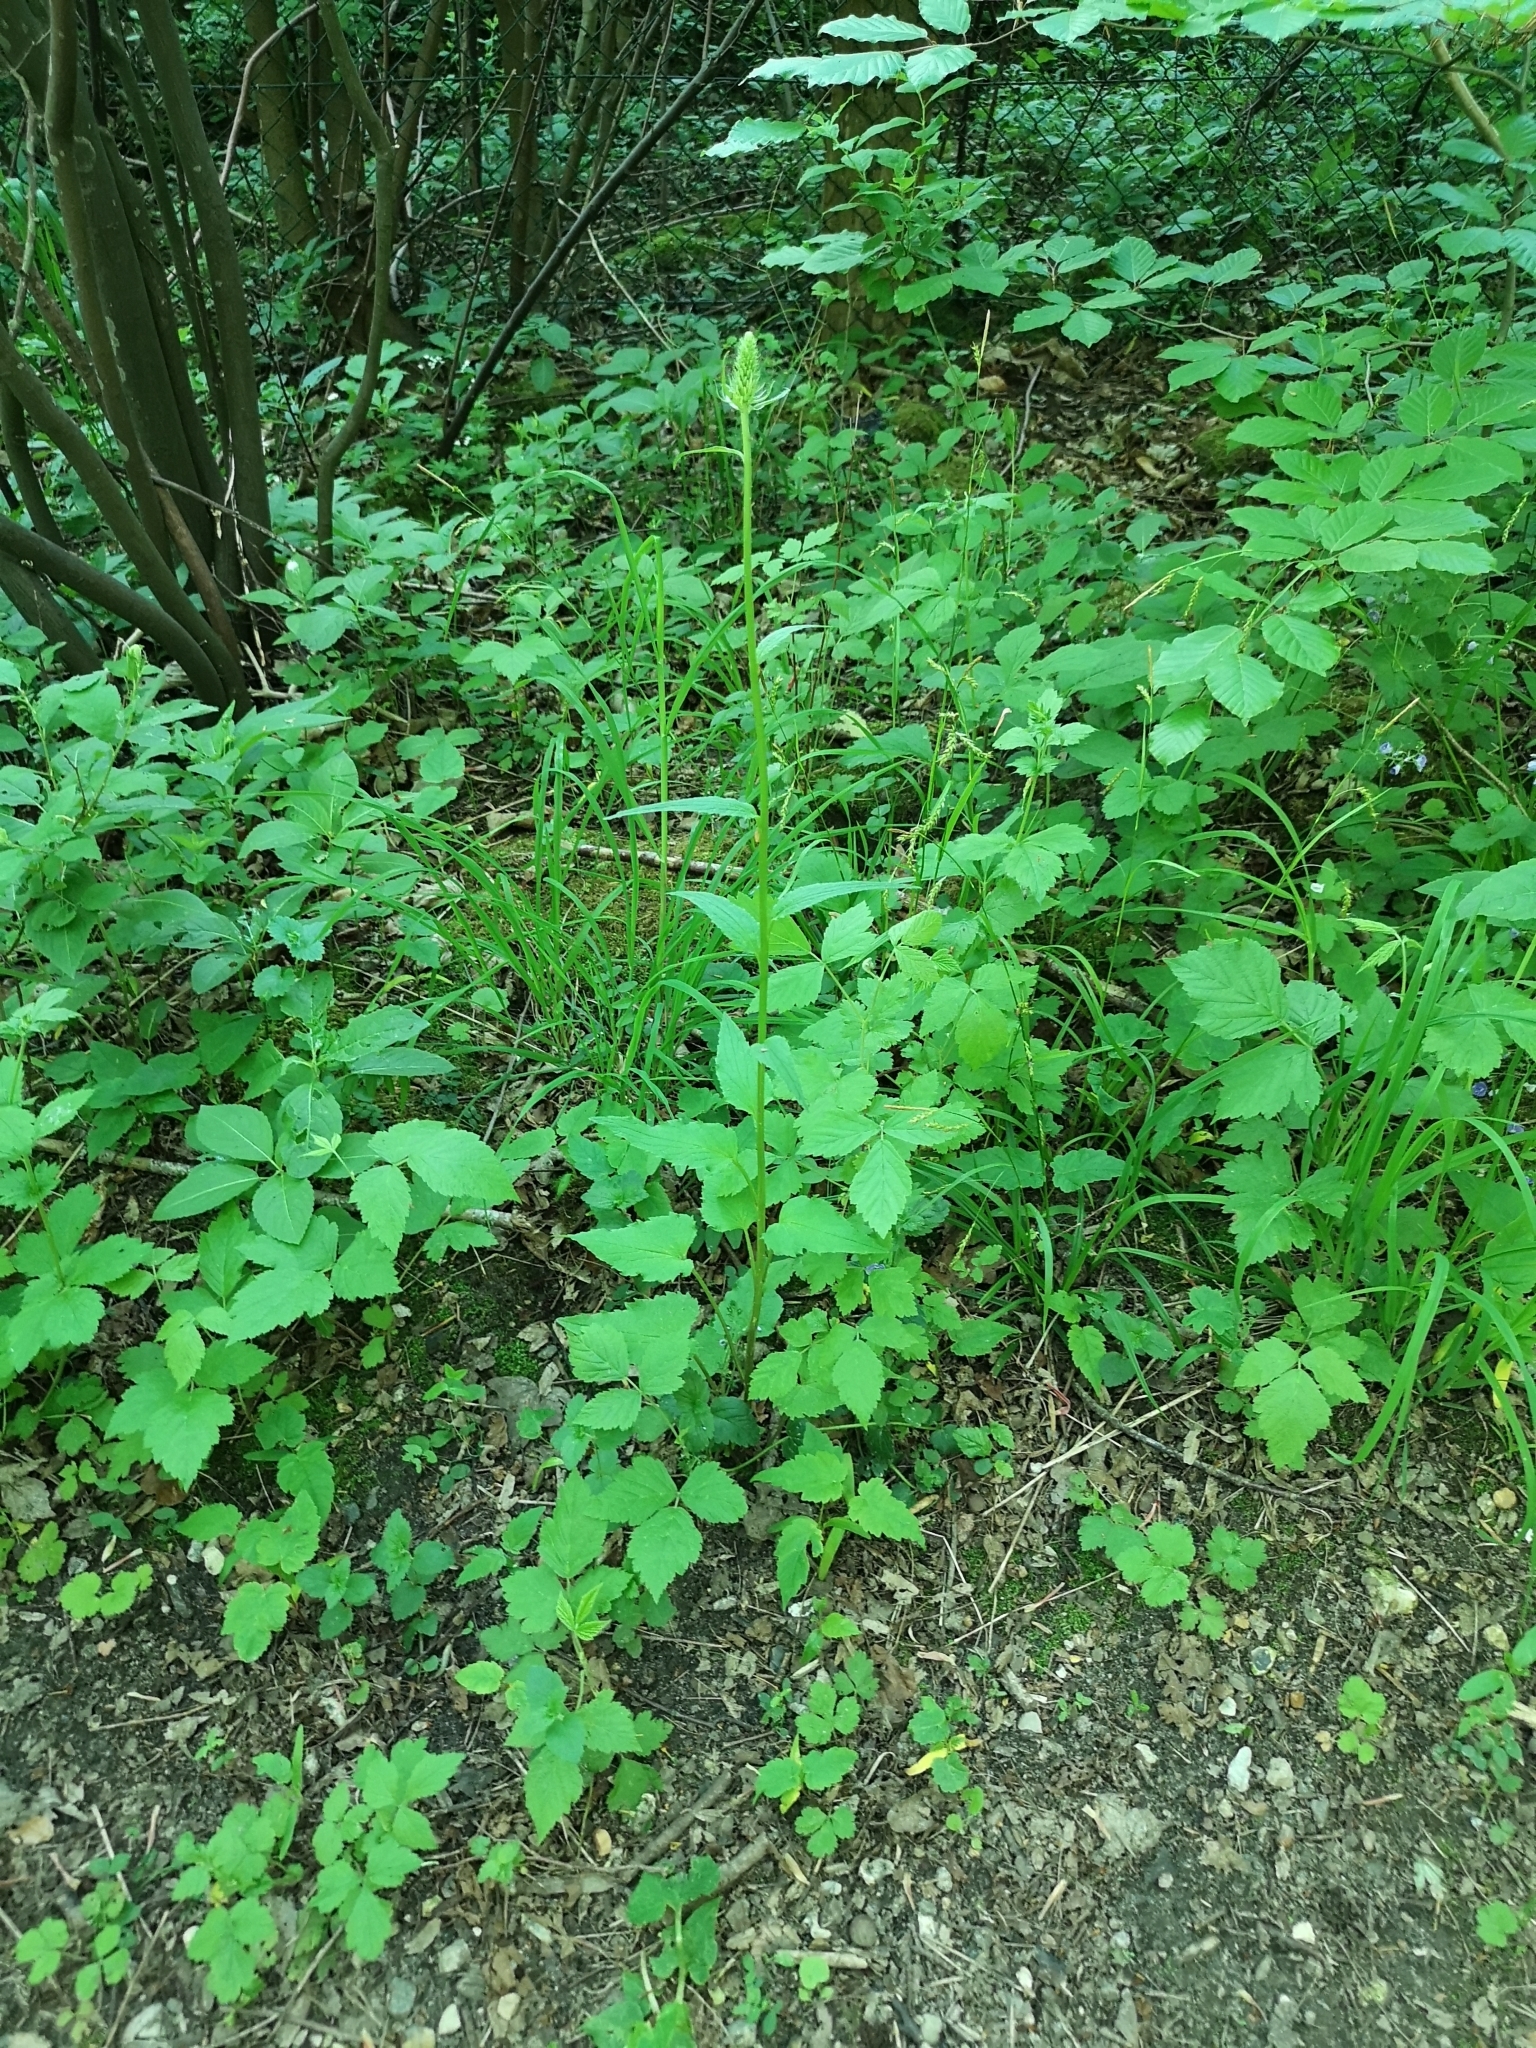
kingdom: Plantae
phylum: Tracheophyta
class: Magnoliopsida
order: Asterales
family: Campanulaceae
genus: Phyteuma
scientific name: Phyteuma spicatum
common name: Spiked rampion
